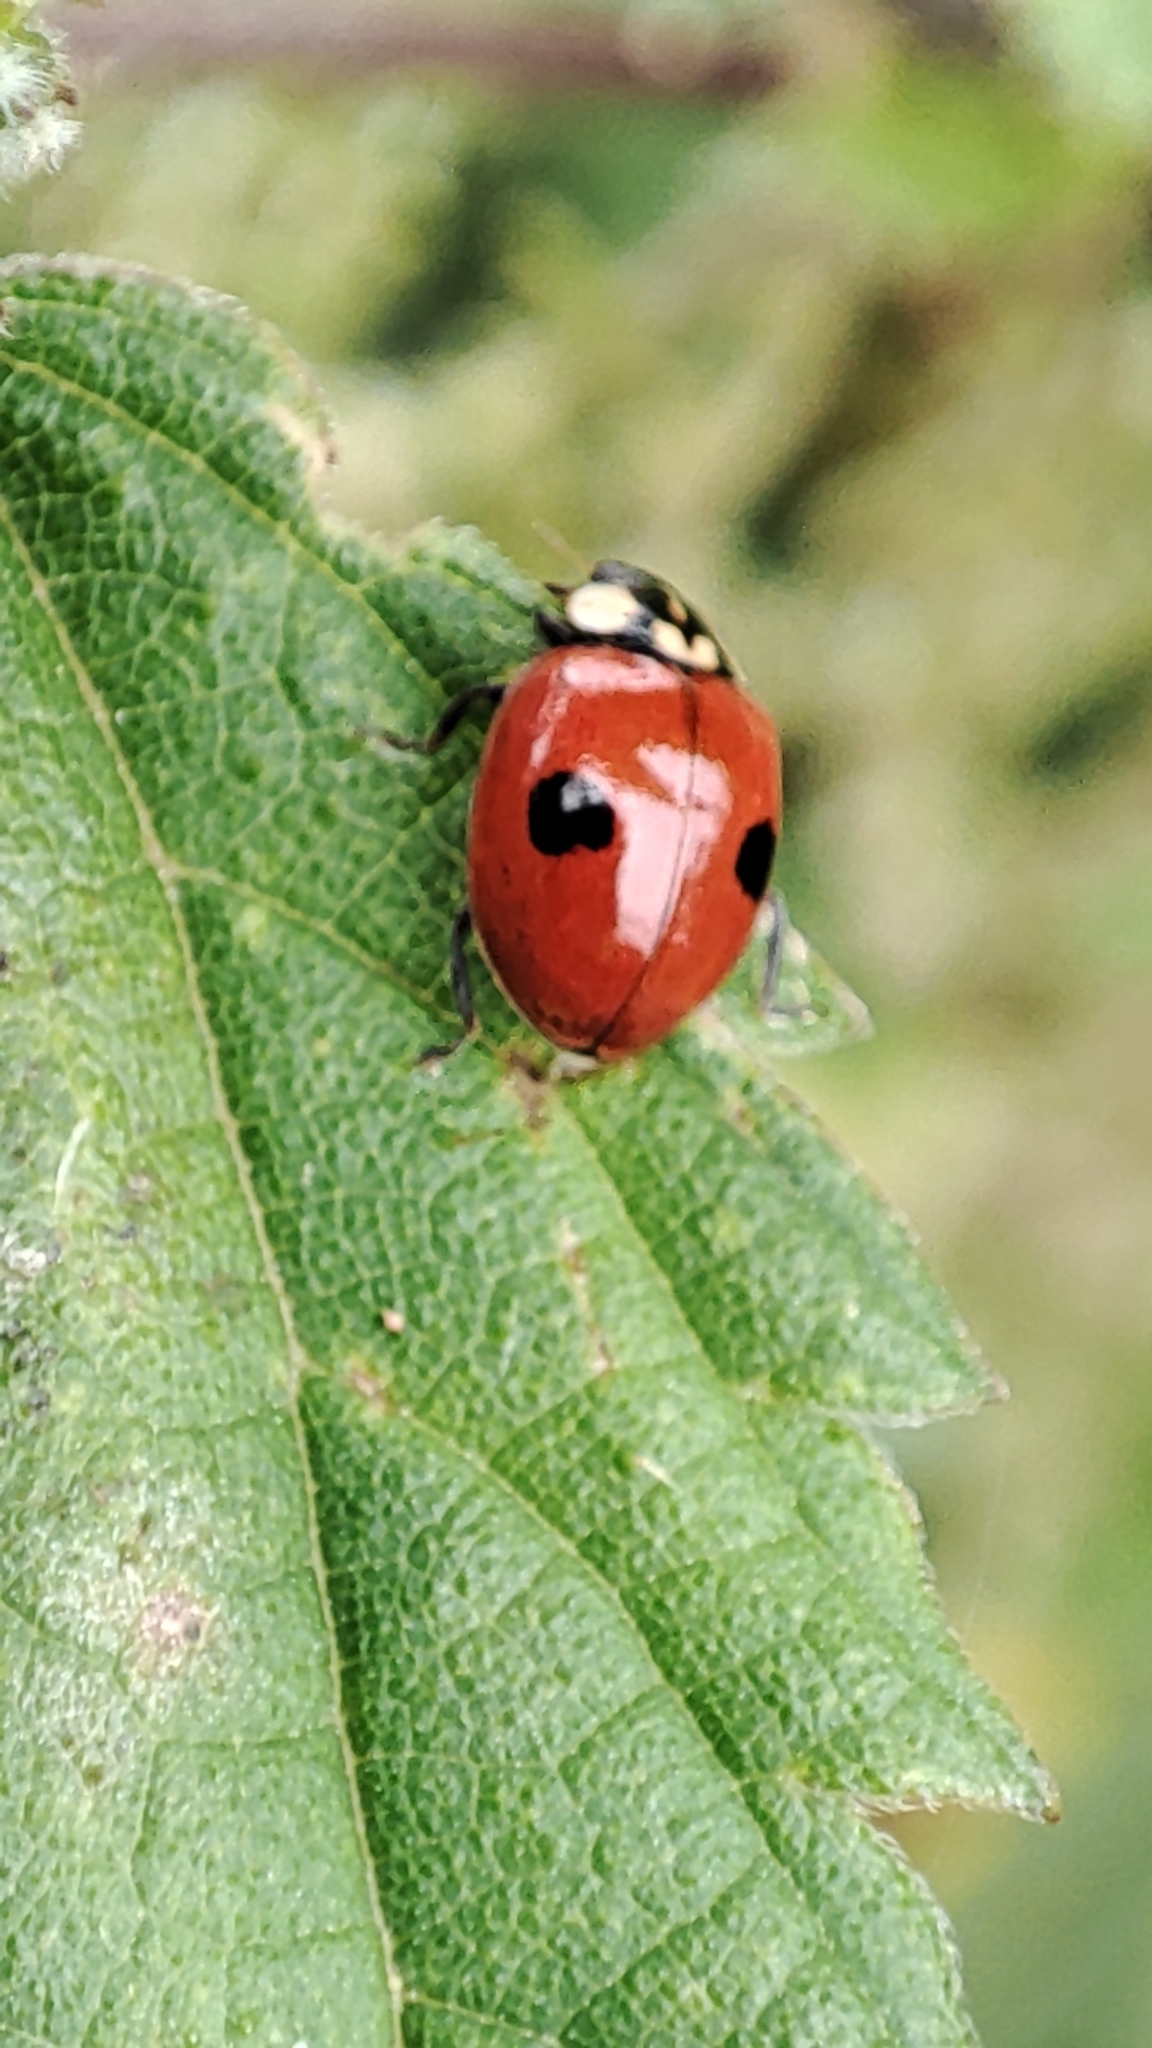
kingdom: Animalia
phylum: Arthropoda
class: Insecta
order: Coleoptera
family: Coccinellidae
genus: Adalia
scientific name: Adalia bipunctata
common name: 2-spot ladybird
